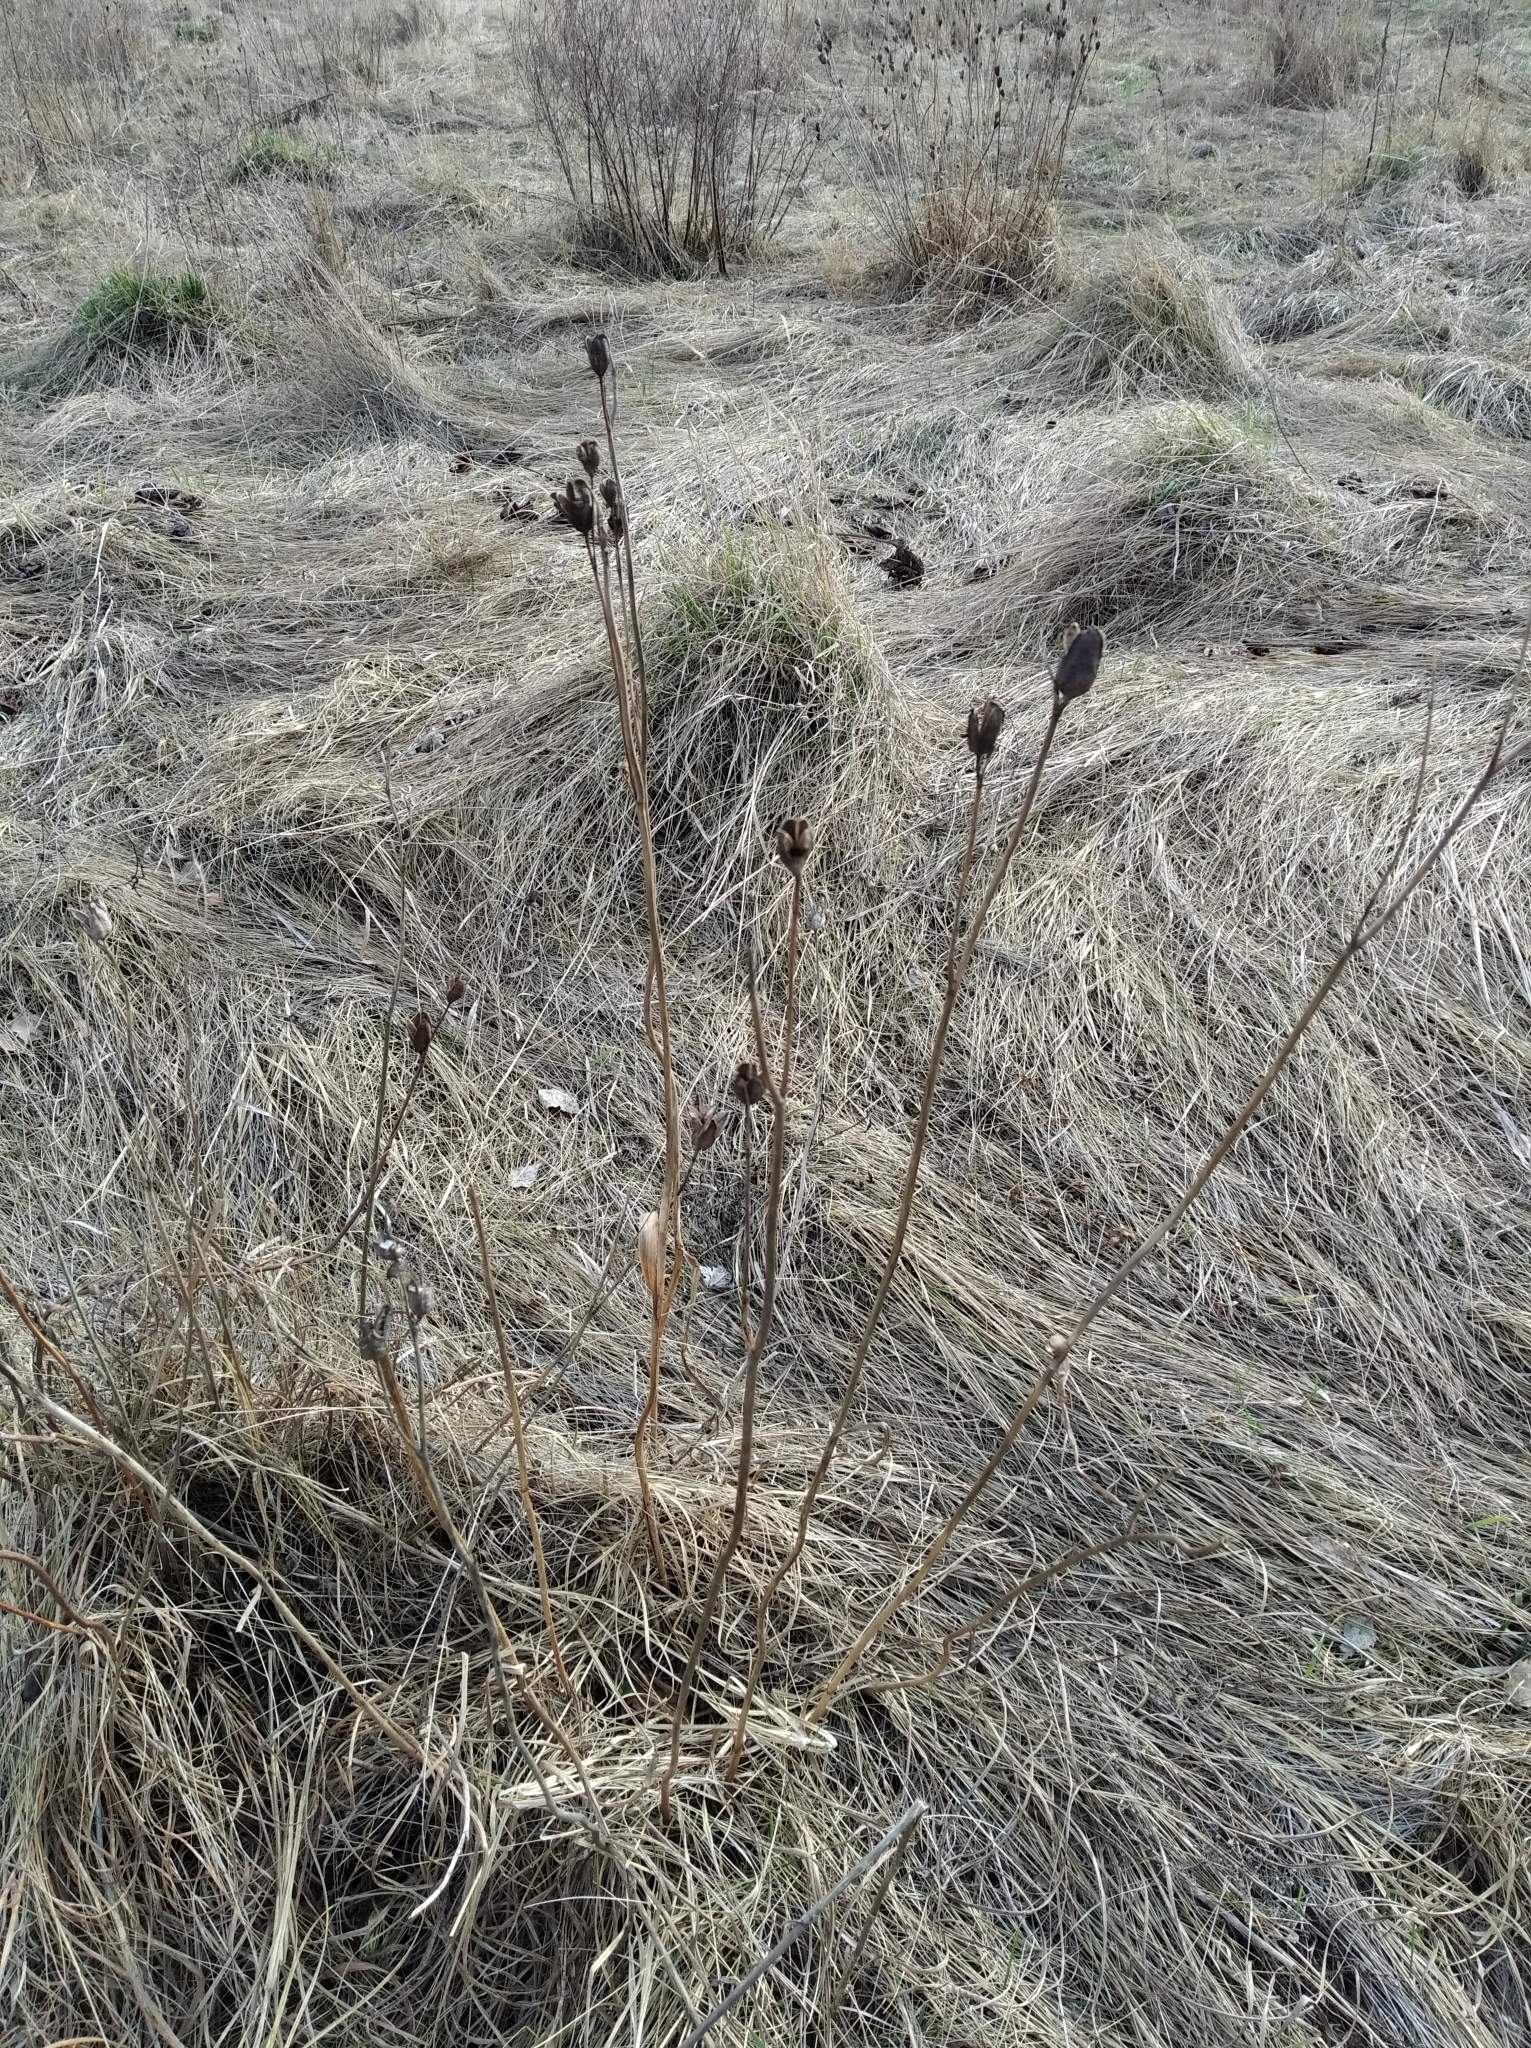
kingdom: Plantae
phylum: Tracheophyta
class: Liliopsida
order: Asparagales
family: Iridaceae
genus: Iris
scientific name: Iris sibirica
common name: Siberian iris
